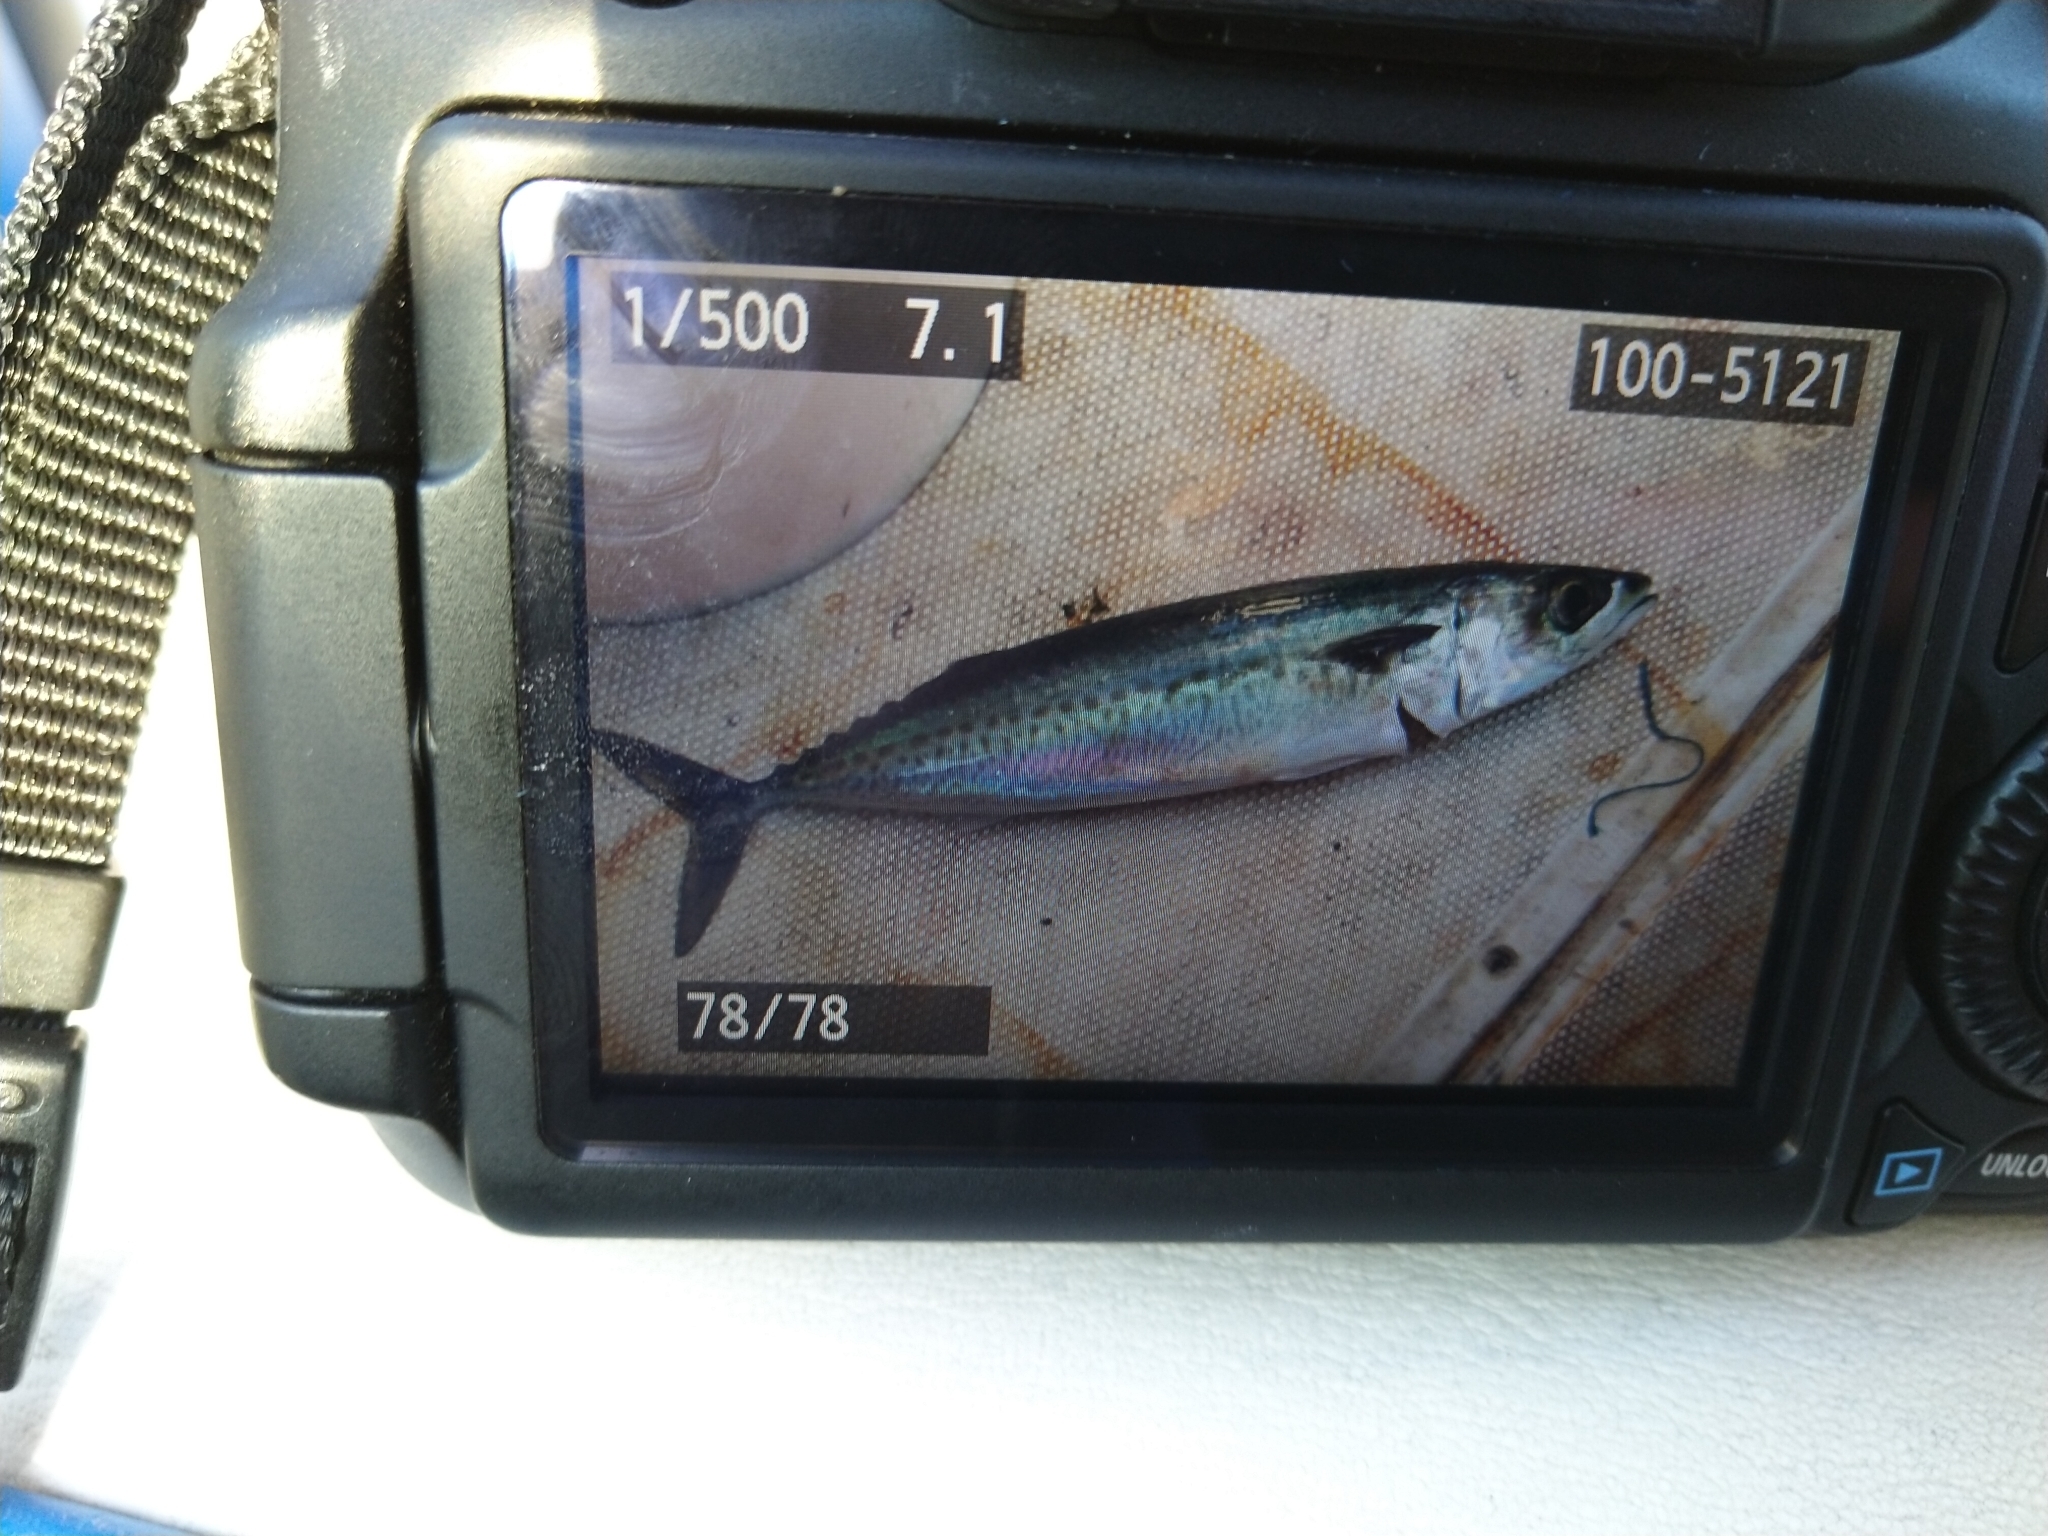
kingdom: Animalia
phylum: Chordata
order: Perciformes
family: Scombridae
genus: Scomber
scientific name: Scomber australasicus
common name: Blue mackerel
